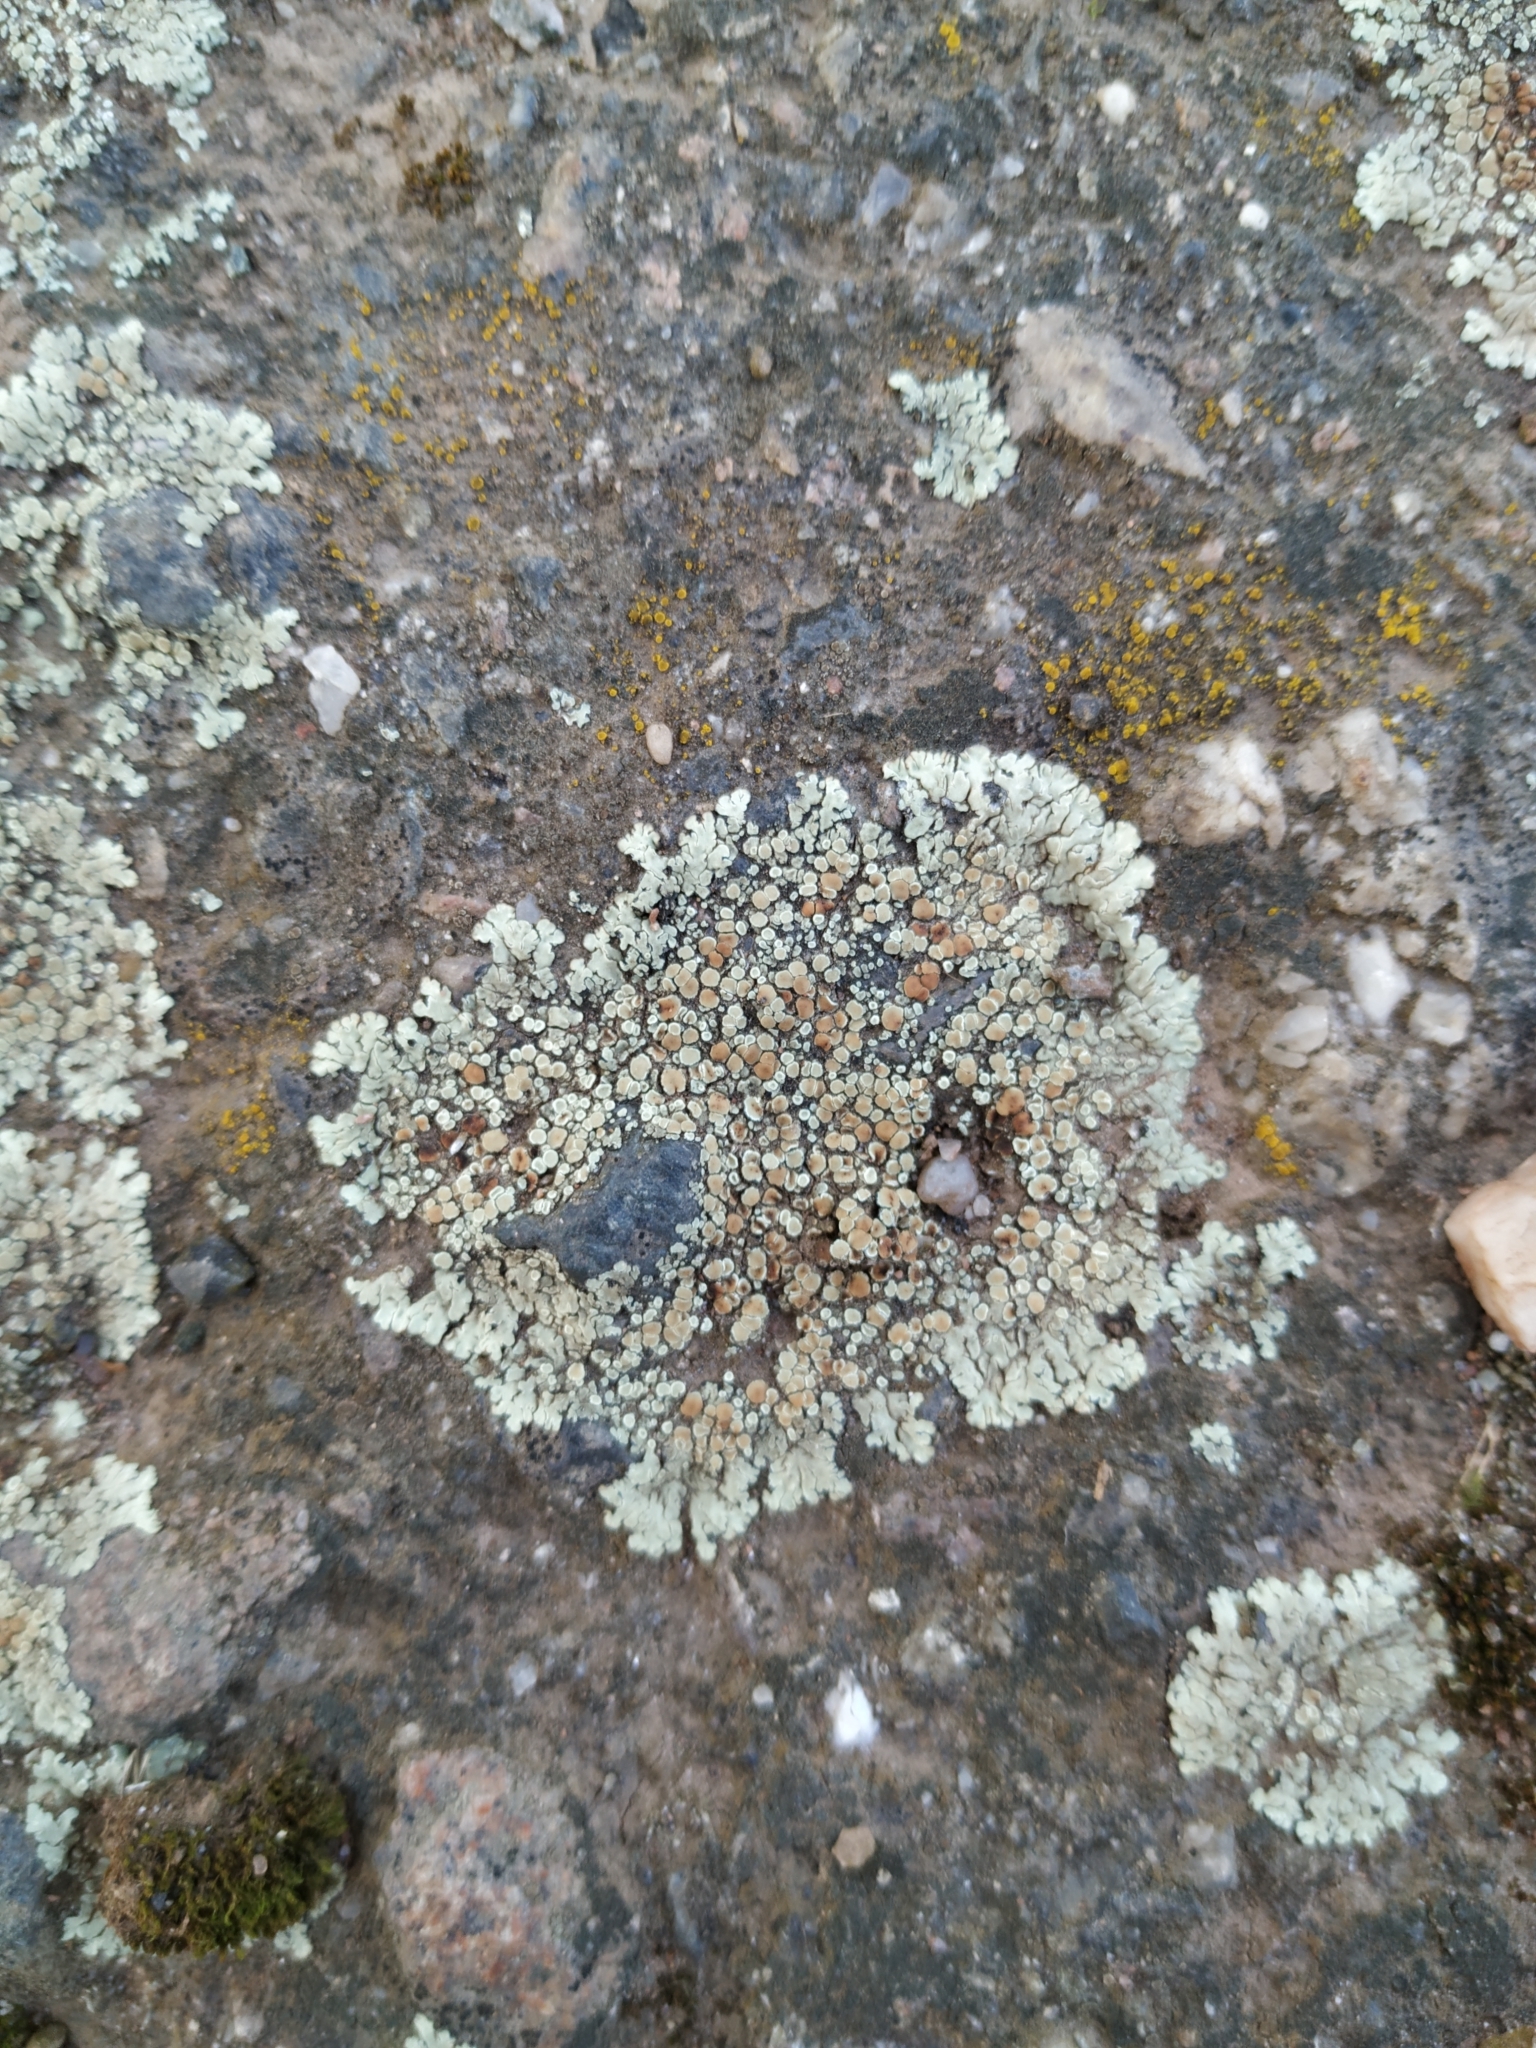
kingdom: Fungi
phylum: Ascomycota
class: Lecanoromycetes
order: Lecanorales
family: Lecanoraceae
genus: Protoparmeliopsis
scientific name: Protoparmeliopsis muralis
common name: Stonewall rim lichen
